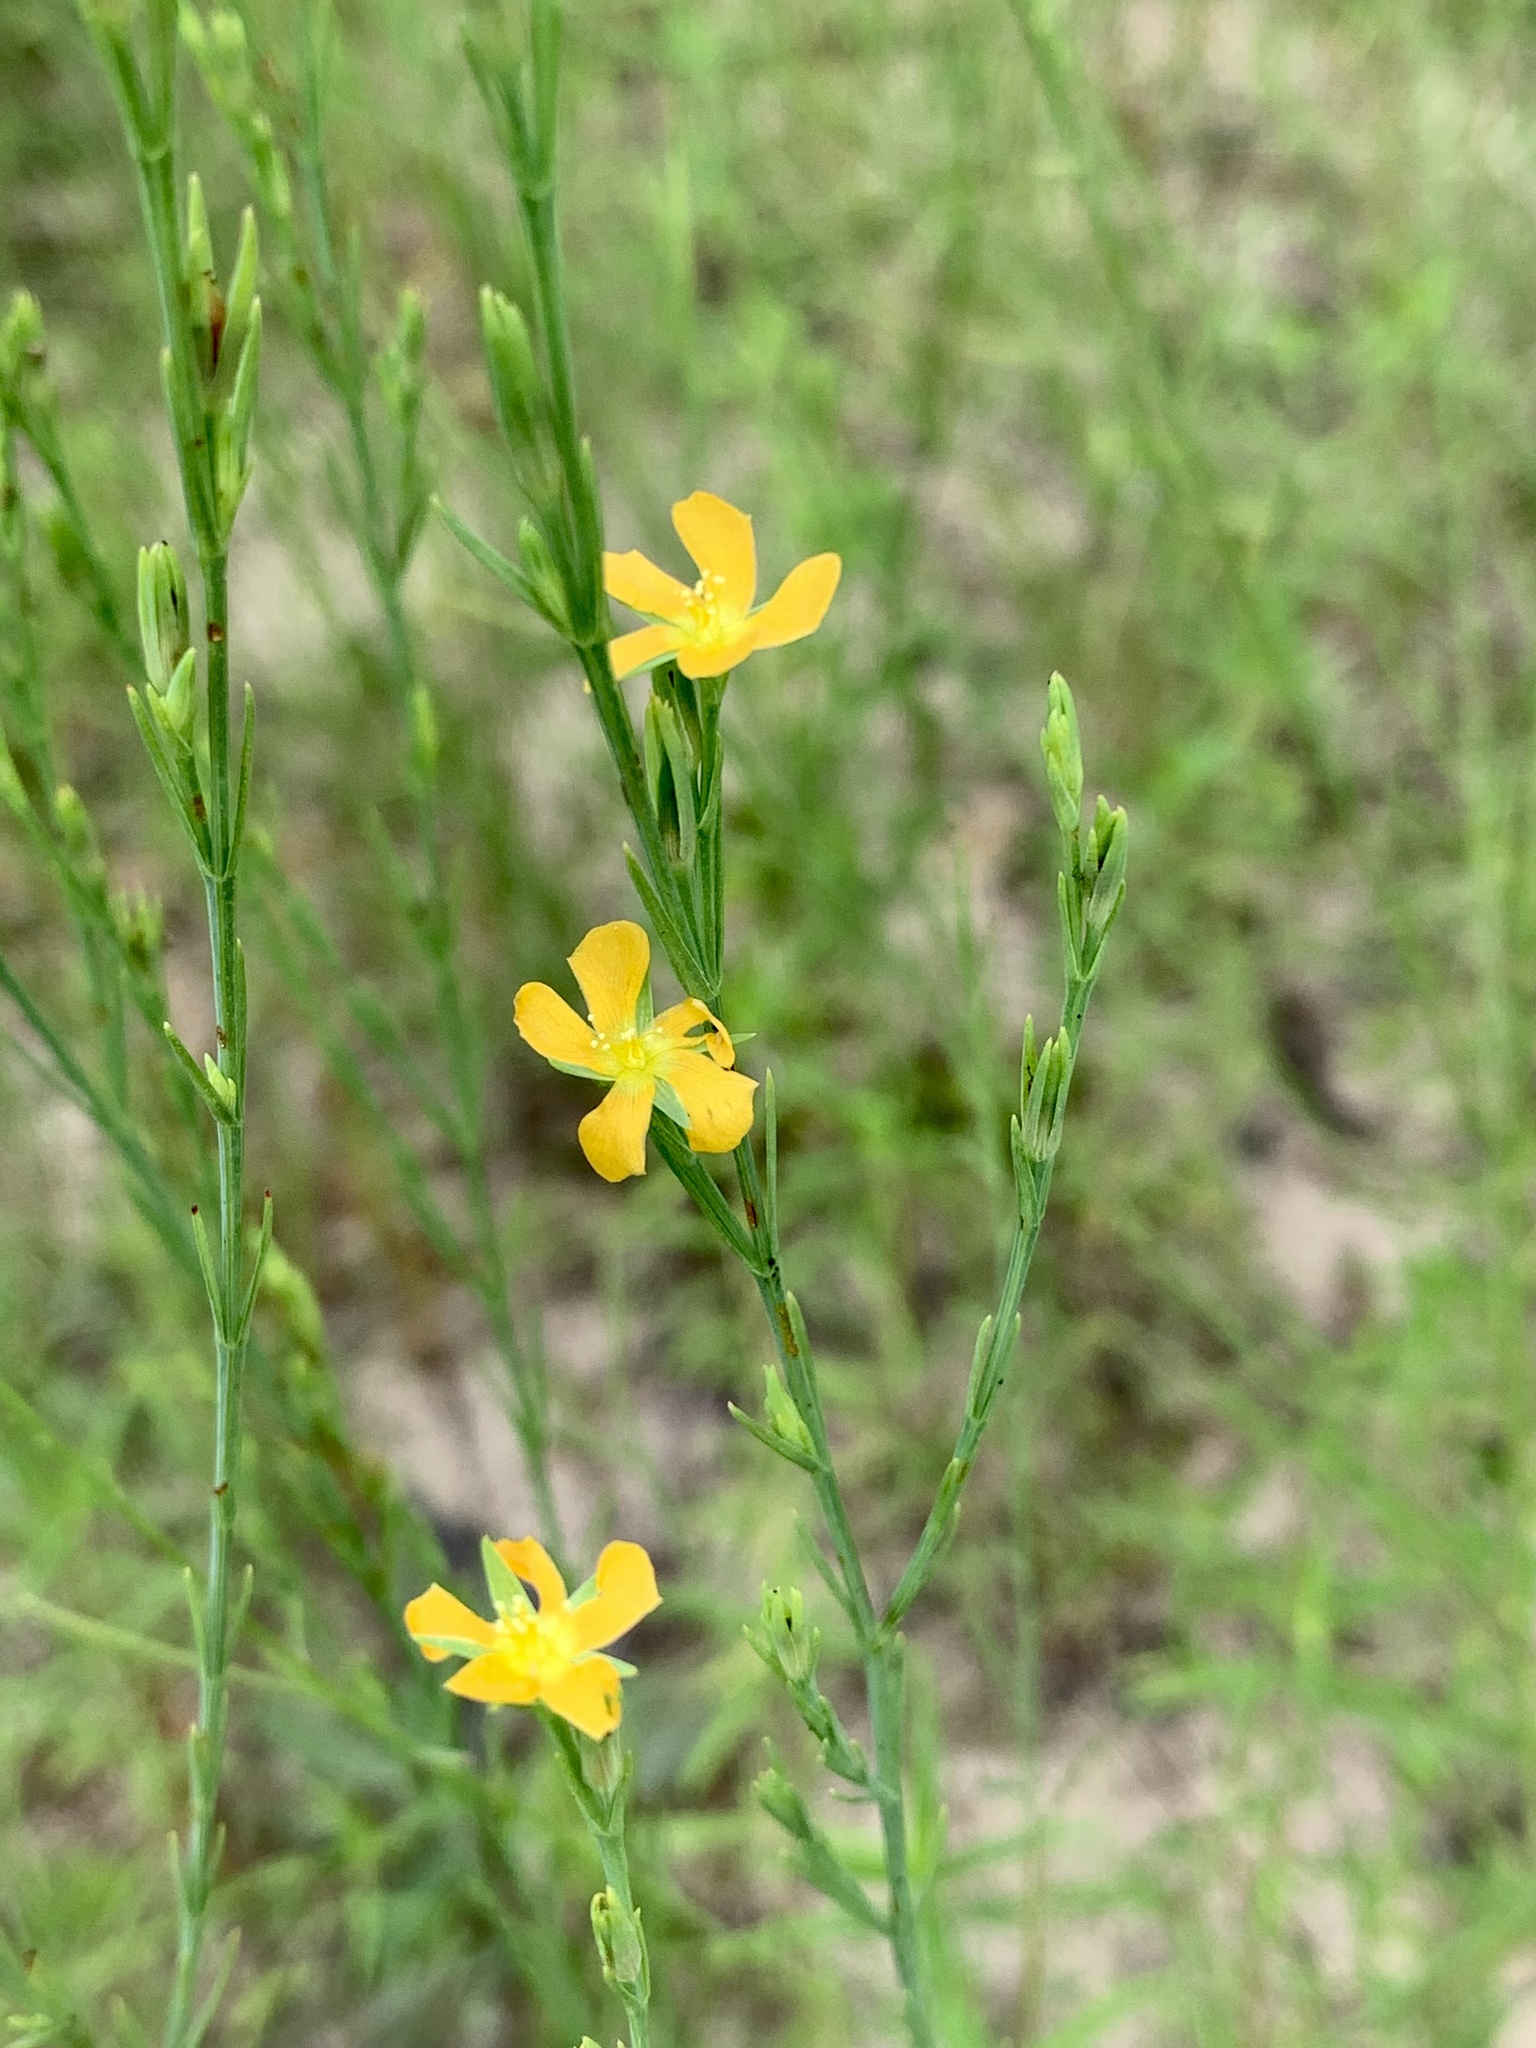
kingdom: Plantae
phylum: Tracheophyta
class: Magnoliopsida
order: Malpighiales
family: Hypericaceae
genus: Hypericum
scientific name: Hypericum drummondii
